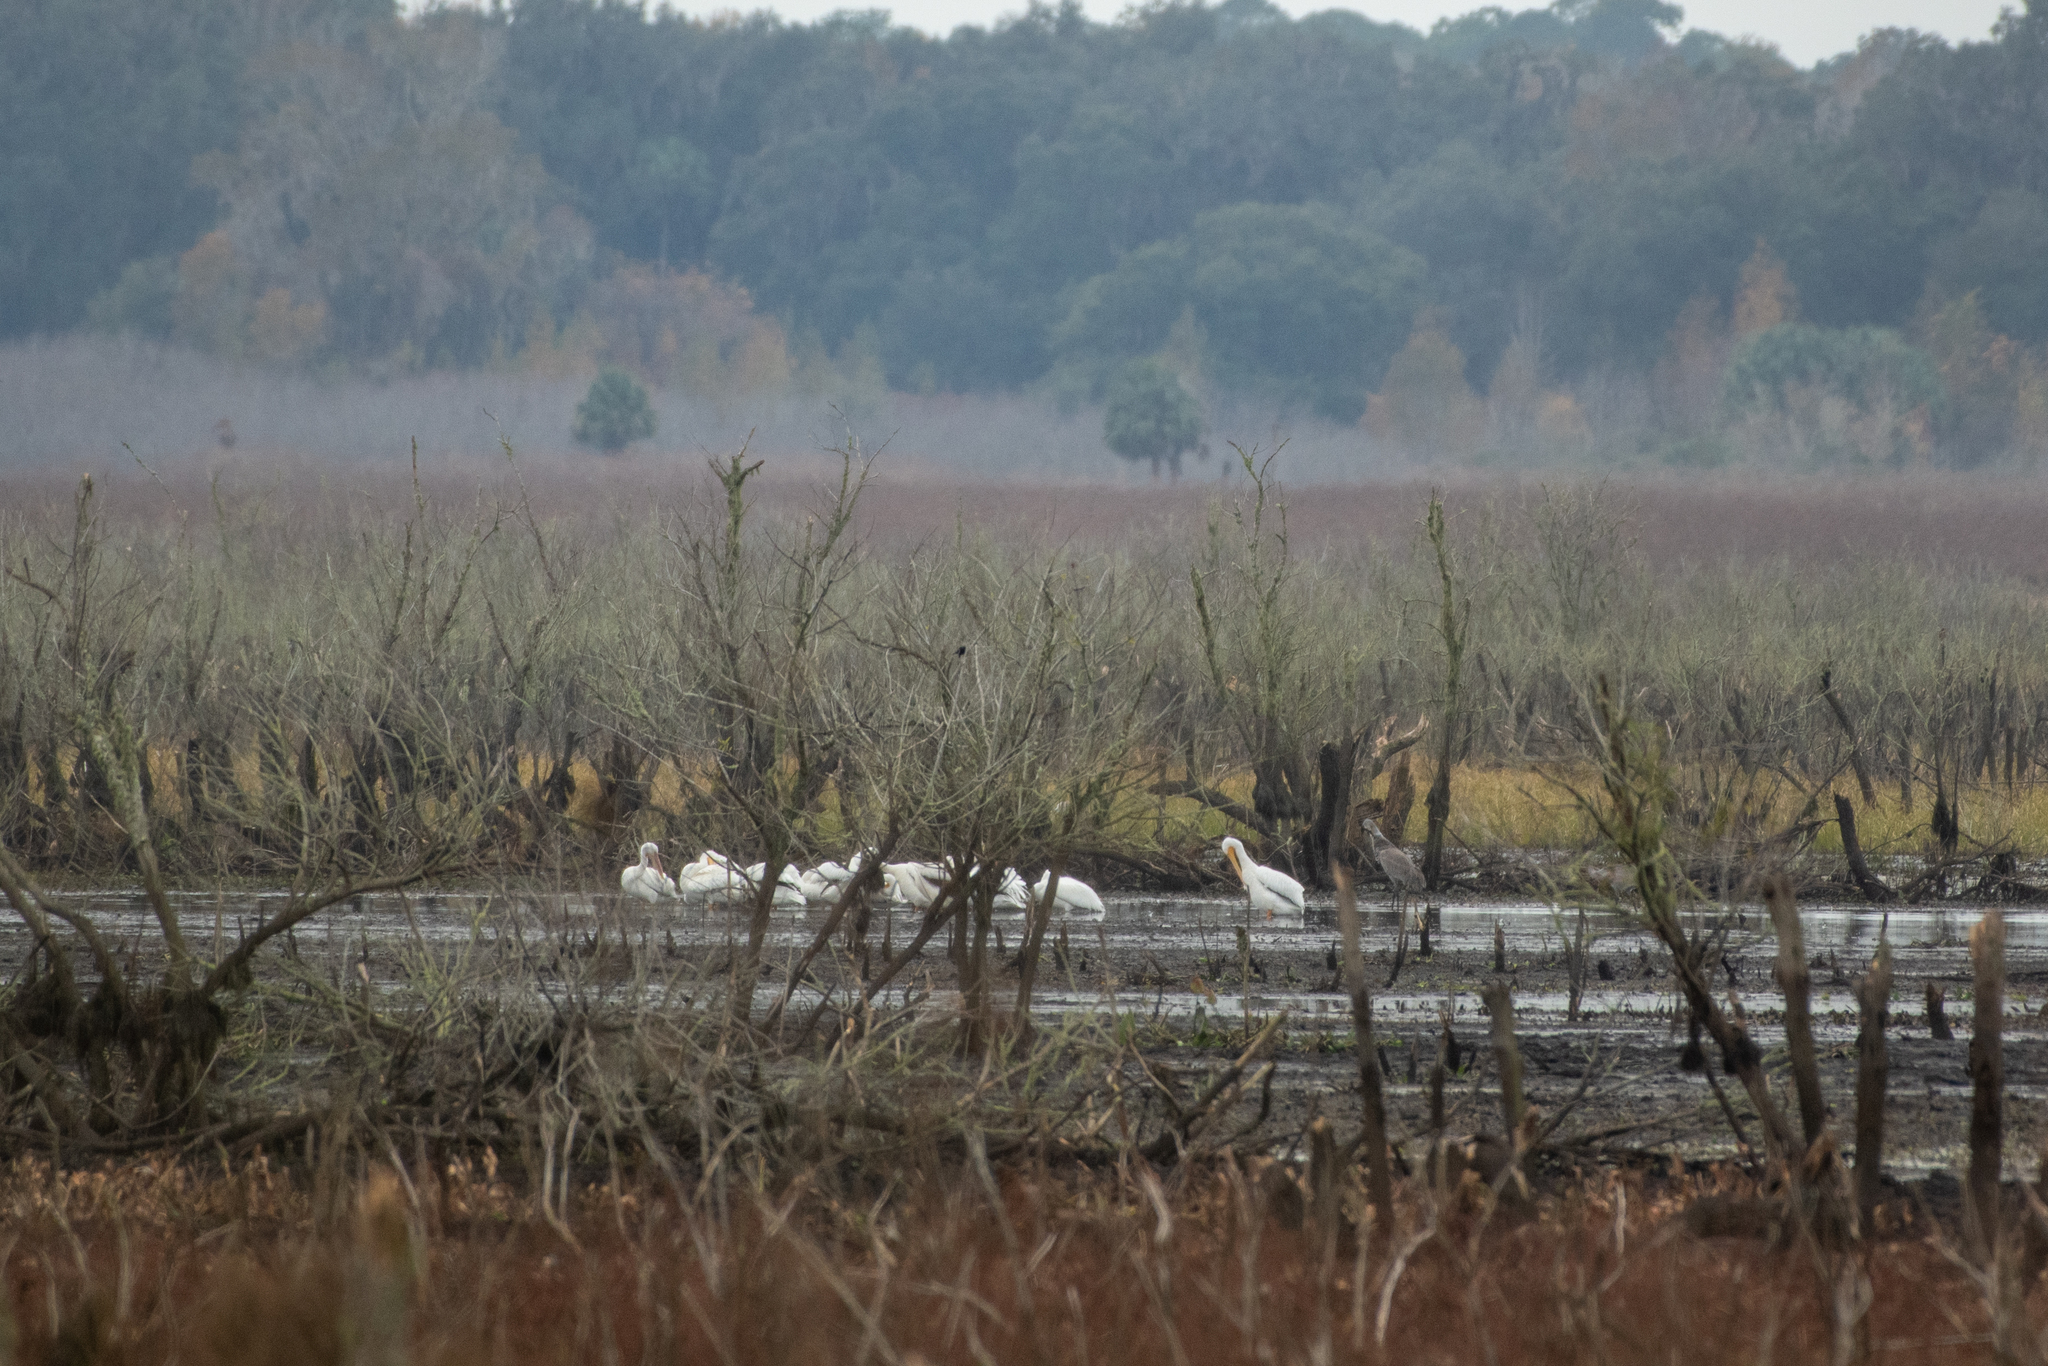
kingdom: Animalia
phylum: Chordata
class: Aves
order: Pelecaniformes
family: Pelecanidae
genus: Pelecanus
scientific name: Pelecanus erythrorhynchos
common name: American white pelican
